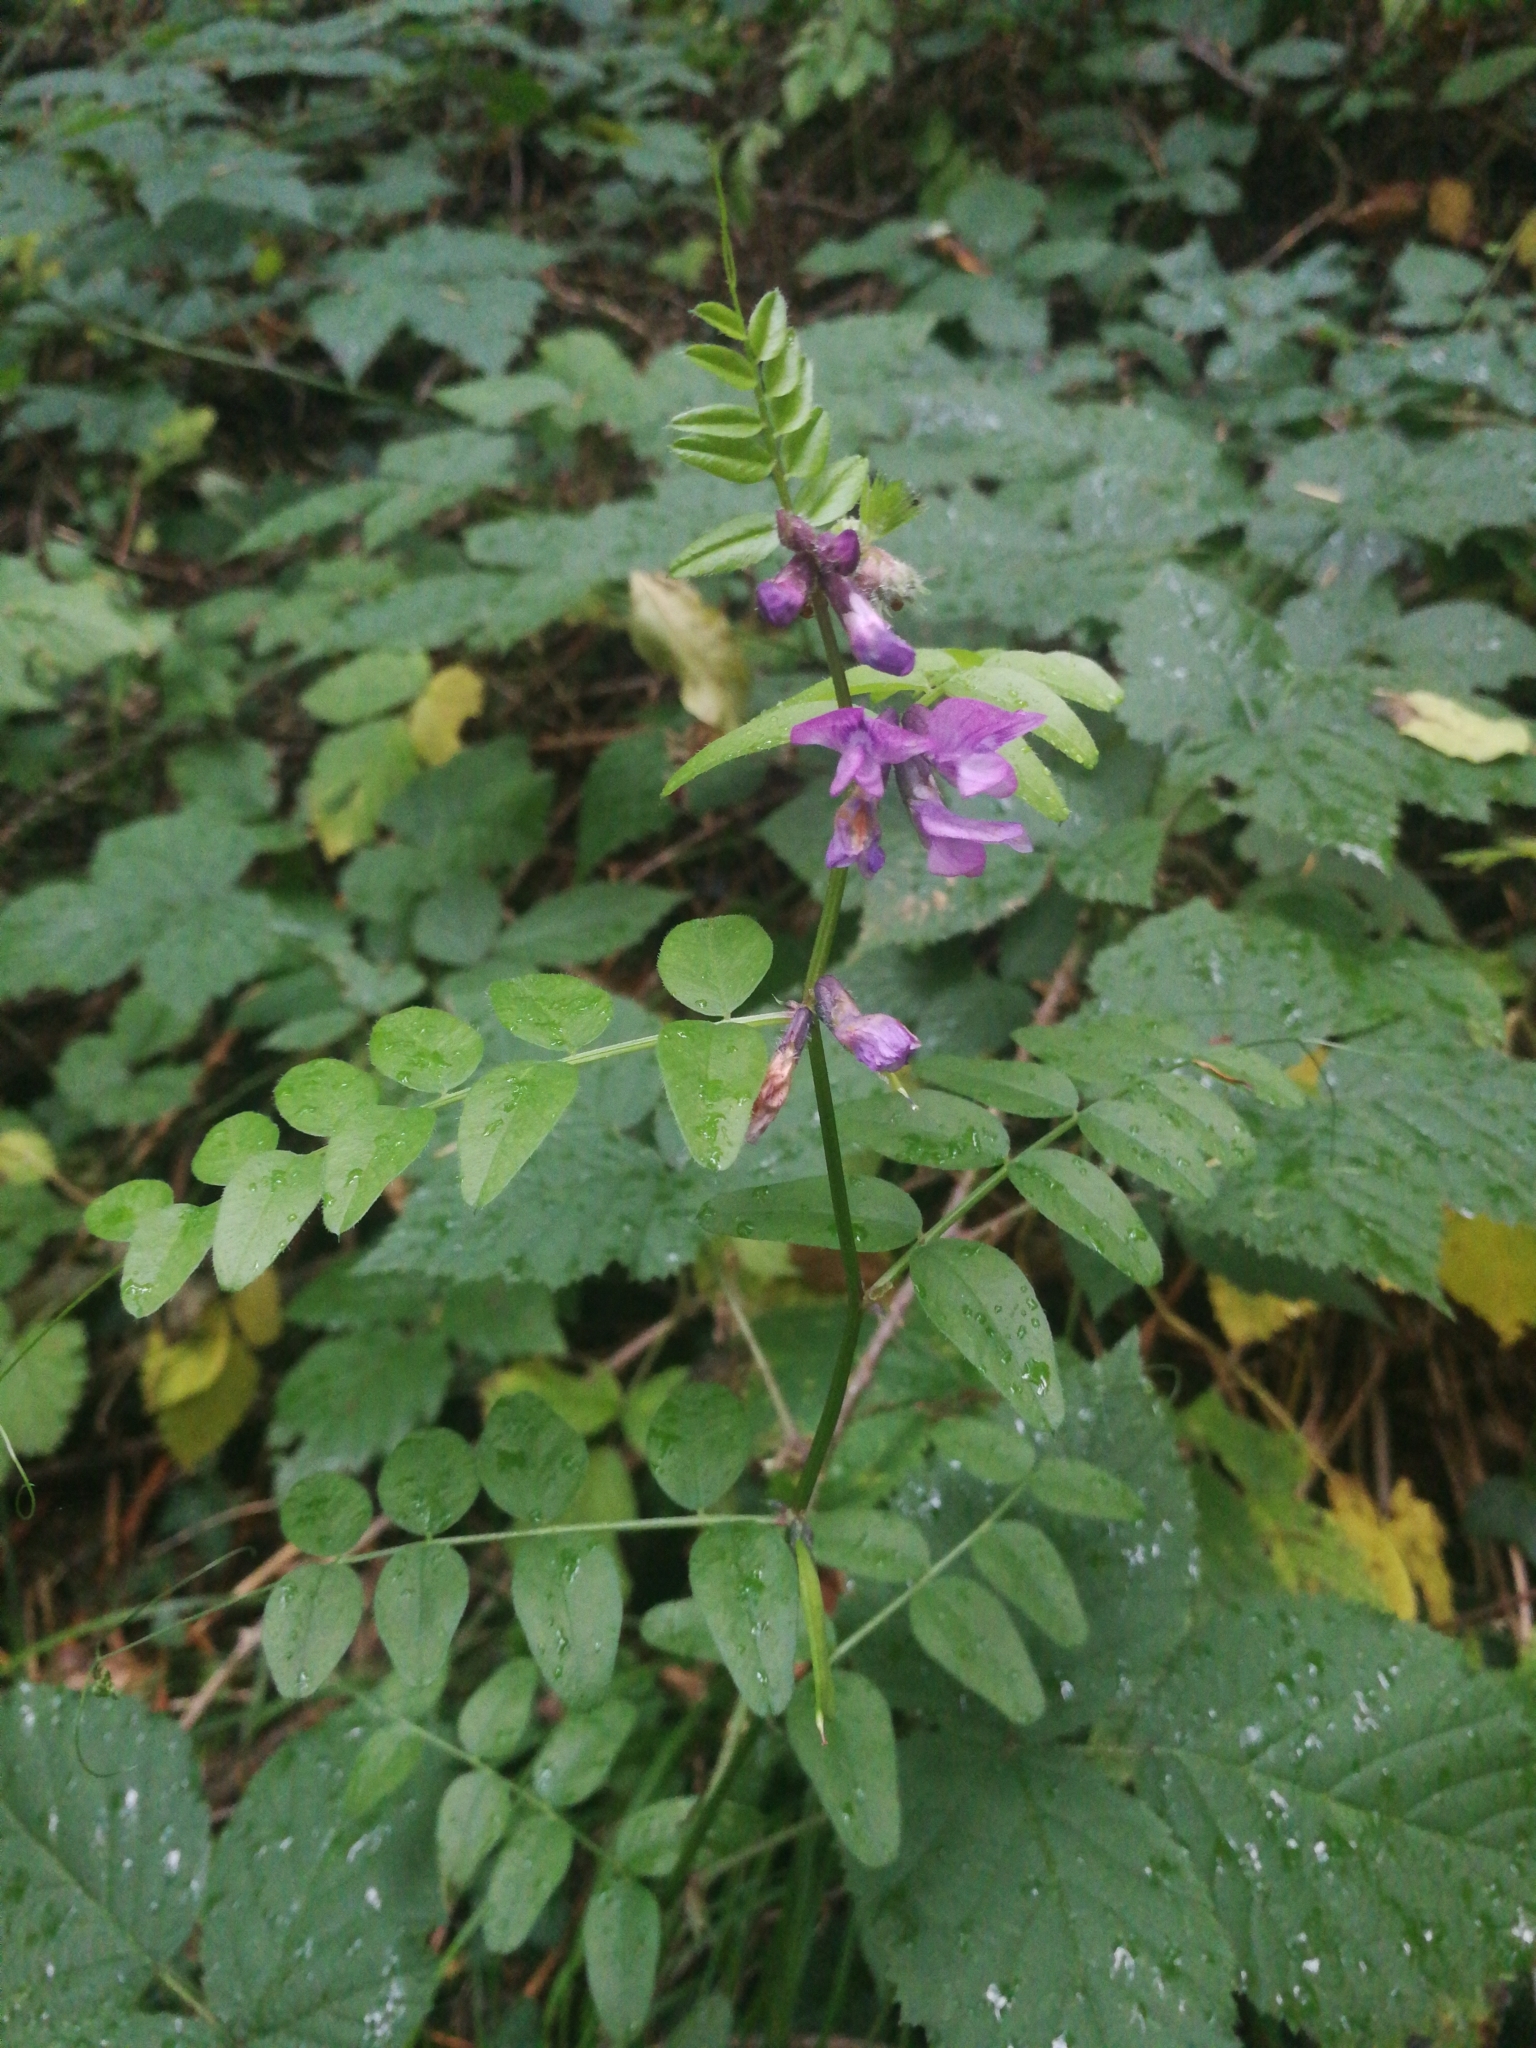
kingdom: Plantae
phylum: Tracheophyta
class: Magnoliopsida
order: Fabales
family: Fabaceae
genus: Vicia
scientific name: Vicia sepium
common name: Bush vetch
